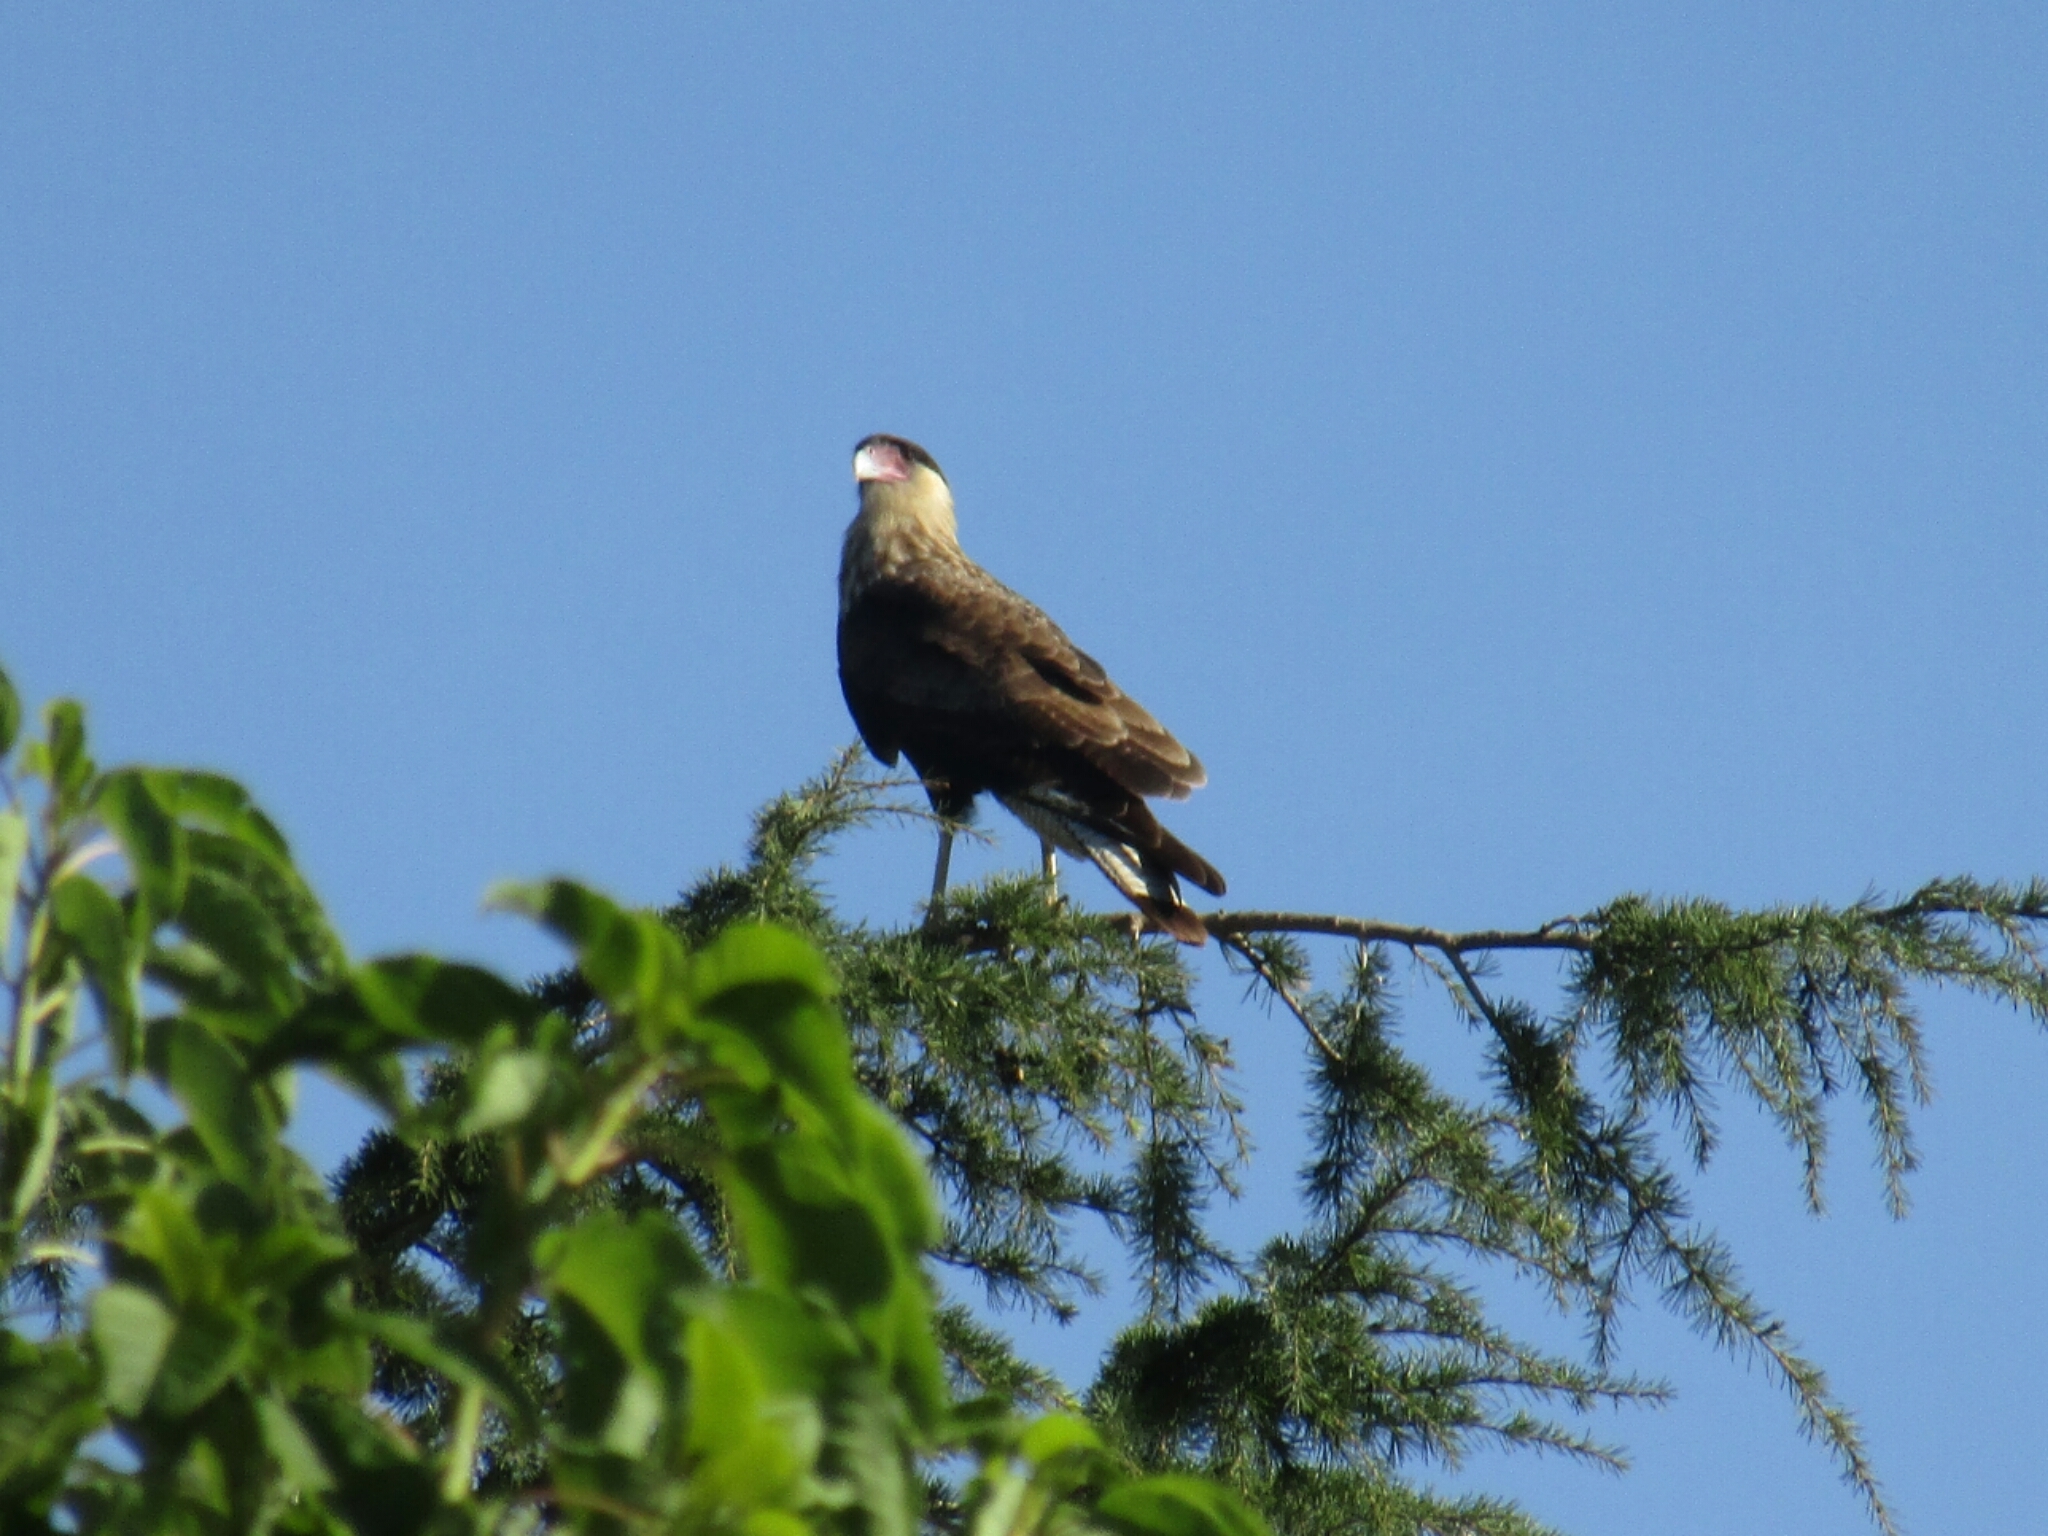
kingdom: Animalia
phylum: Chordata
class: Aves
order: Falconiformes
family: Falconidae
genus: Caracara
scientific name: Caracara plancus
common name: Southern caracara
